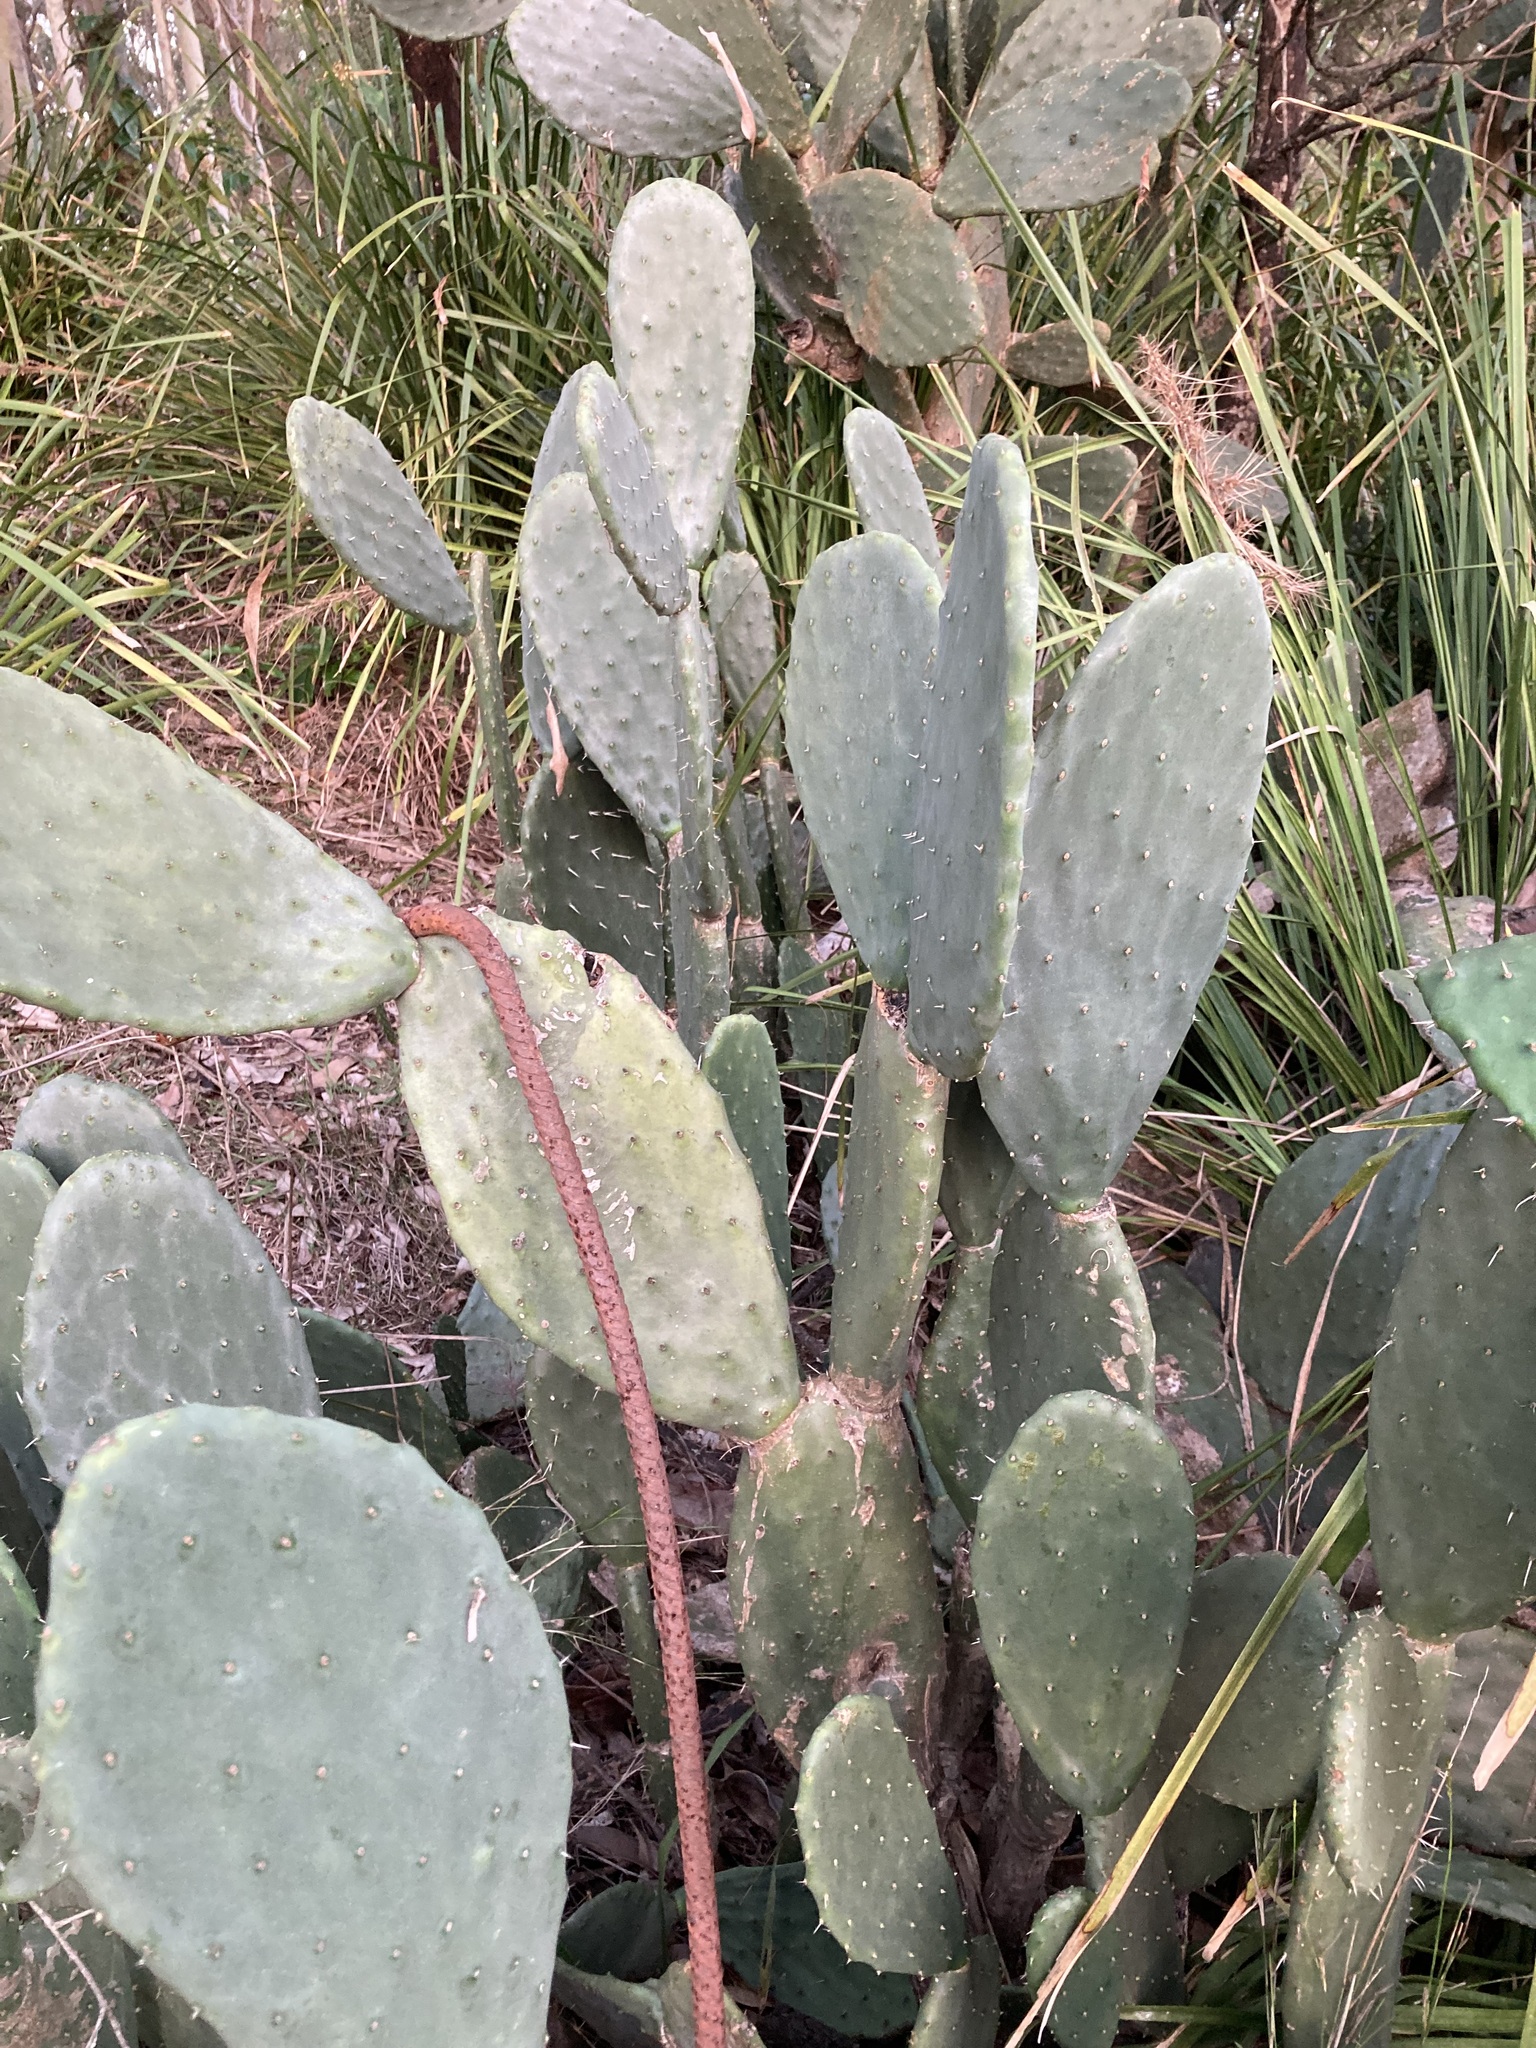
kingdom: Plantae
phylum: Tracheophyta
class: Magnoliopsida
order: Caryophyllales
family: Cactaceae
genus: Opuntia
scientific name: Opuntia ficus-indica
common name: Barbary fig
